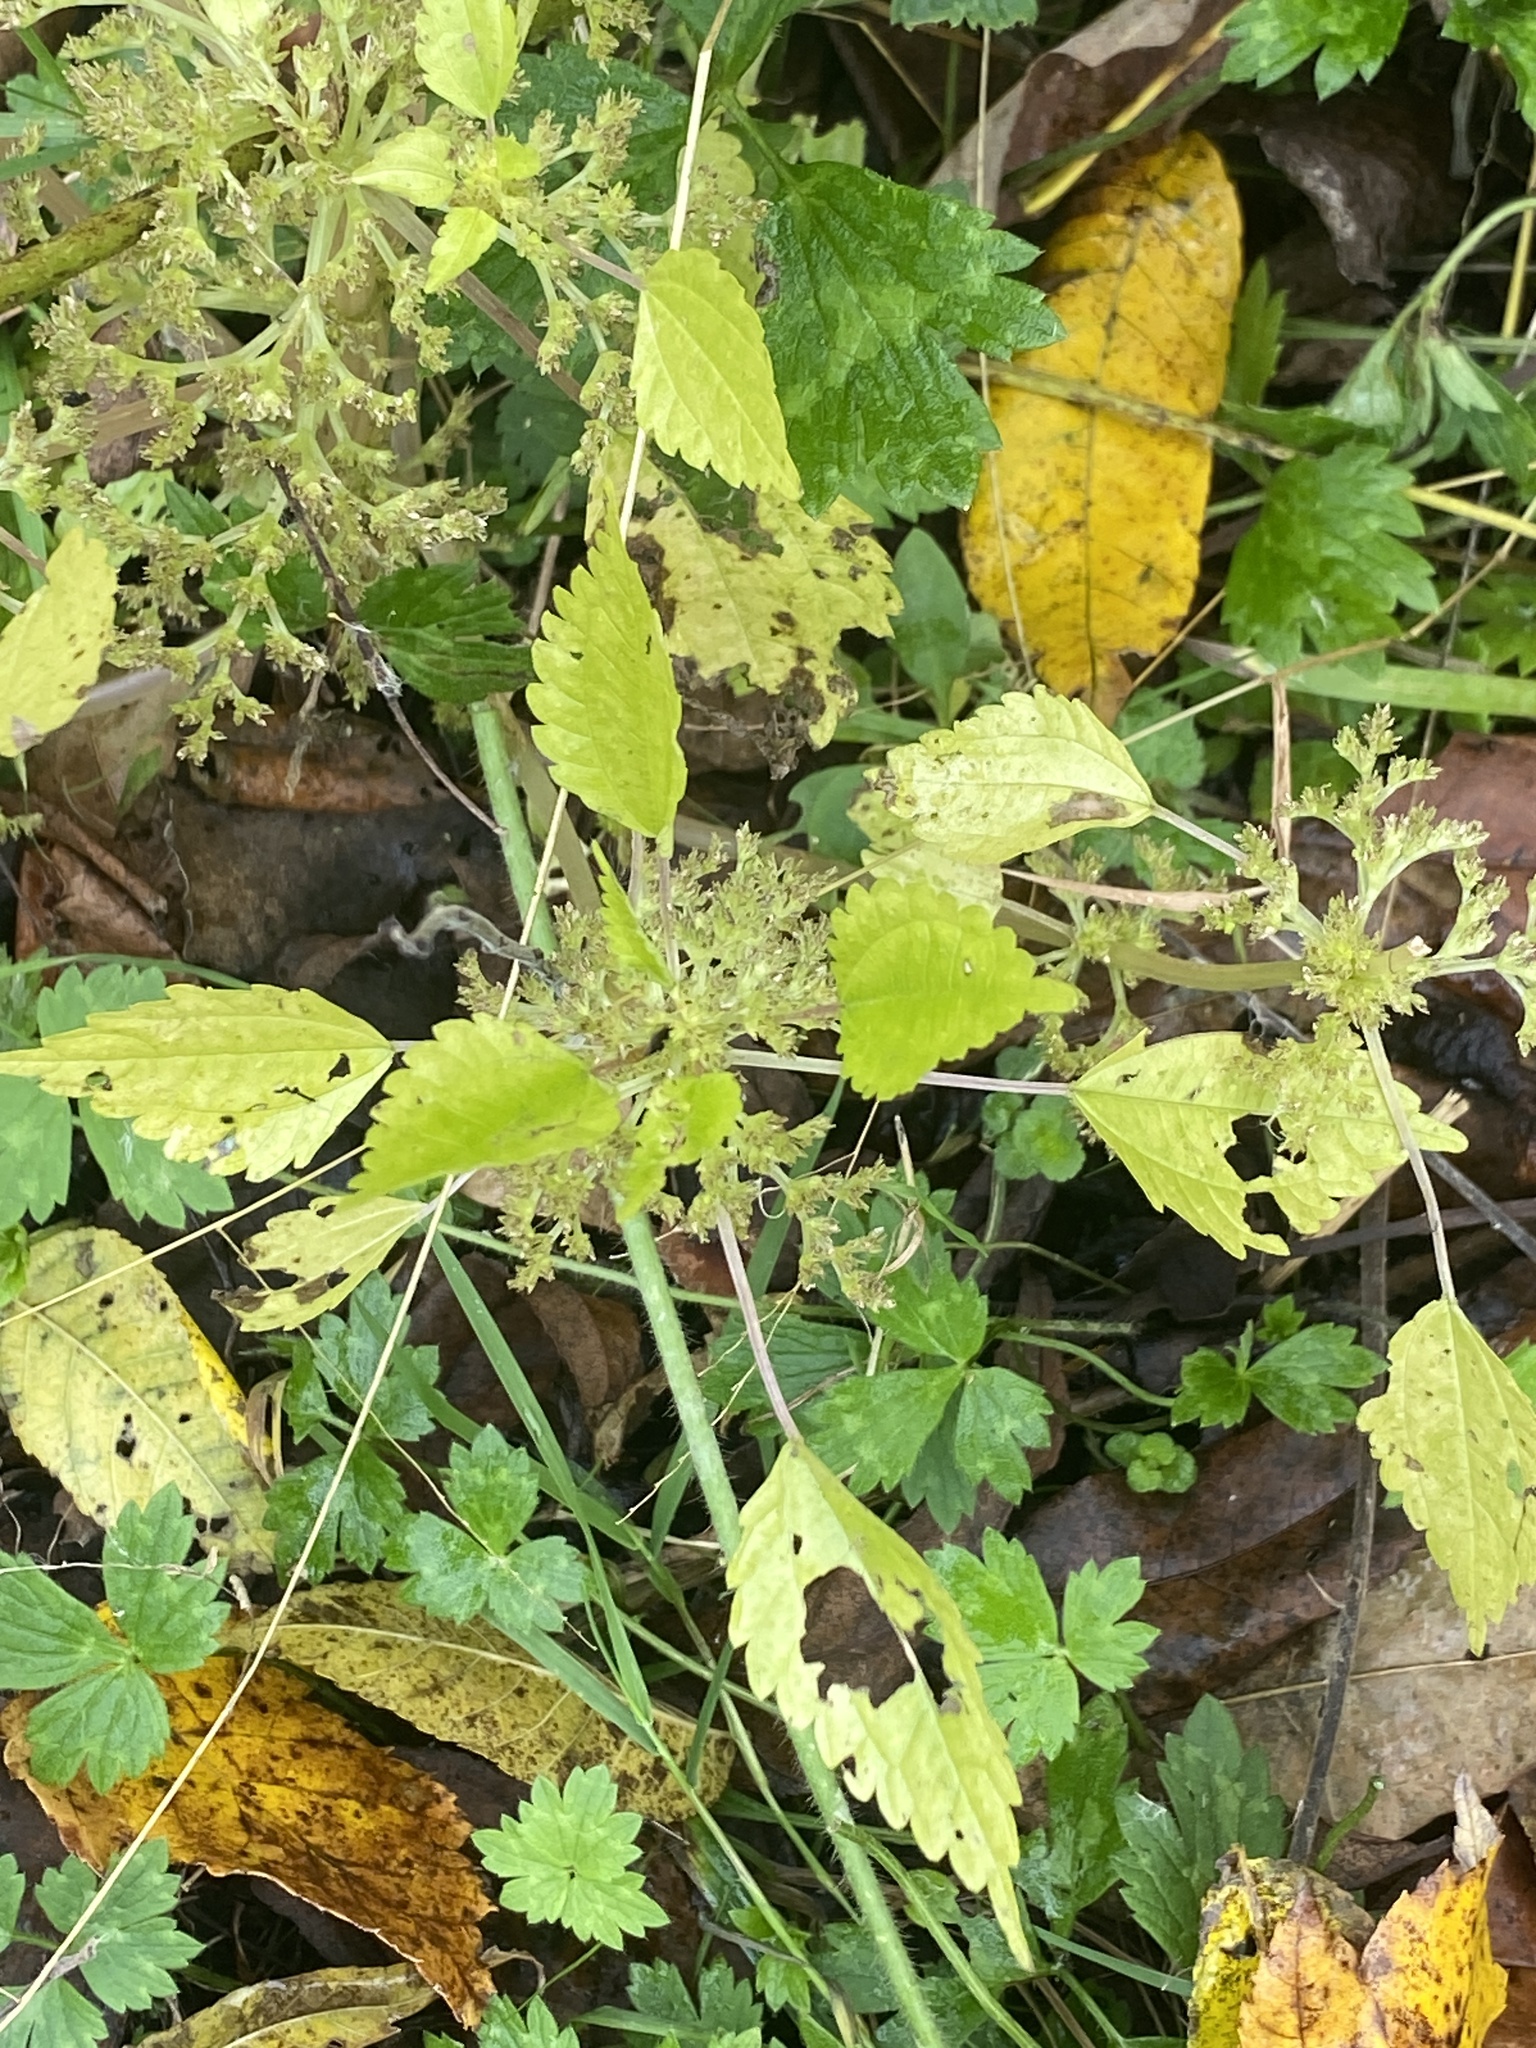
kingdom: Plantae
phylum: Tracheophyta
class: Magnoliopsida
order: Rosales
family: Urticaceae
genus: Pilea
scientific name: Pilea pumila
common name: Clearweed
